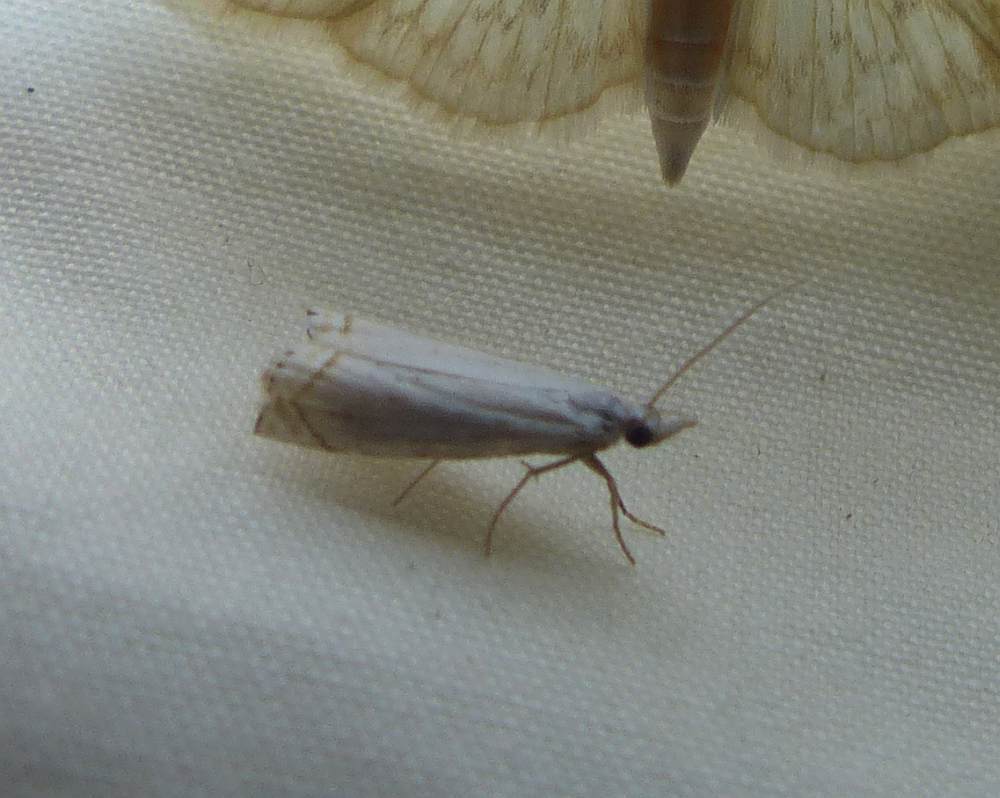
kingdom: Animalia
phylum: Arthropoda
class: Insecta
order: Lepidoptera
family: Crambidae
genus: Crambus
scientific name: Crambus albellus
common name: Small white grass-veneer
